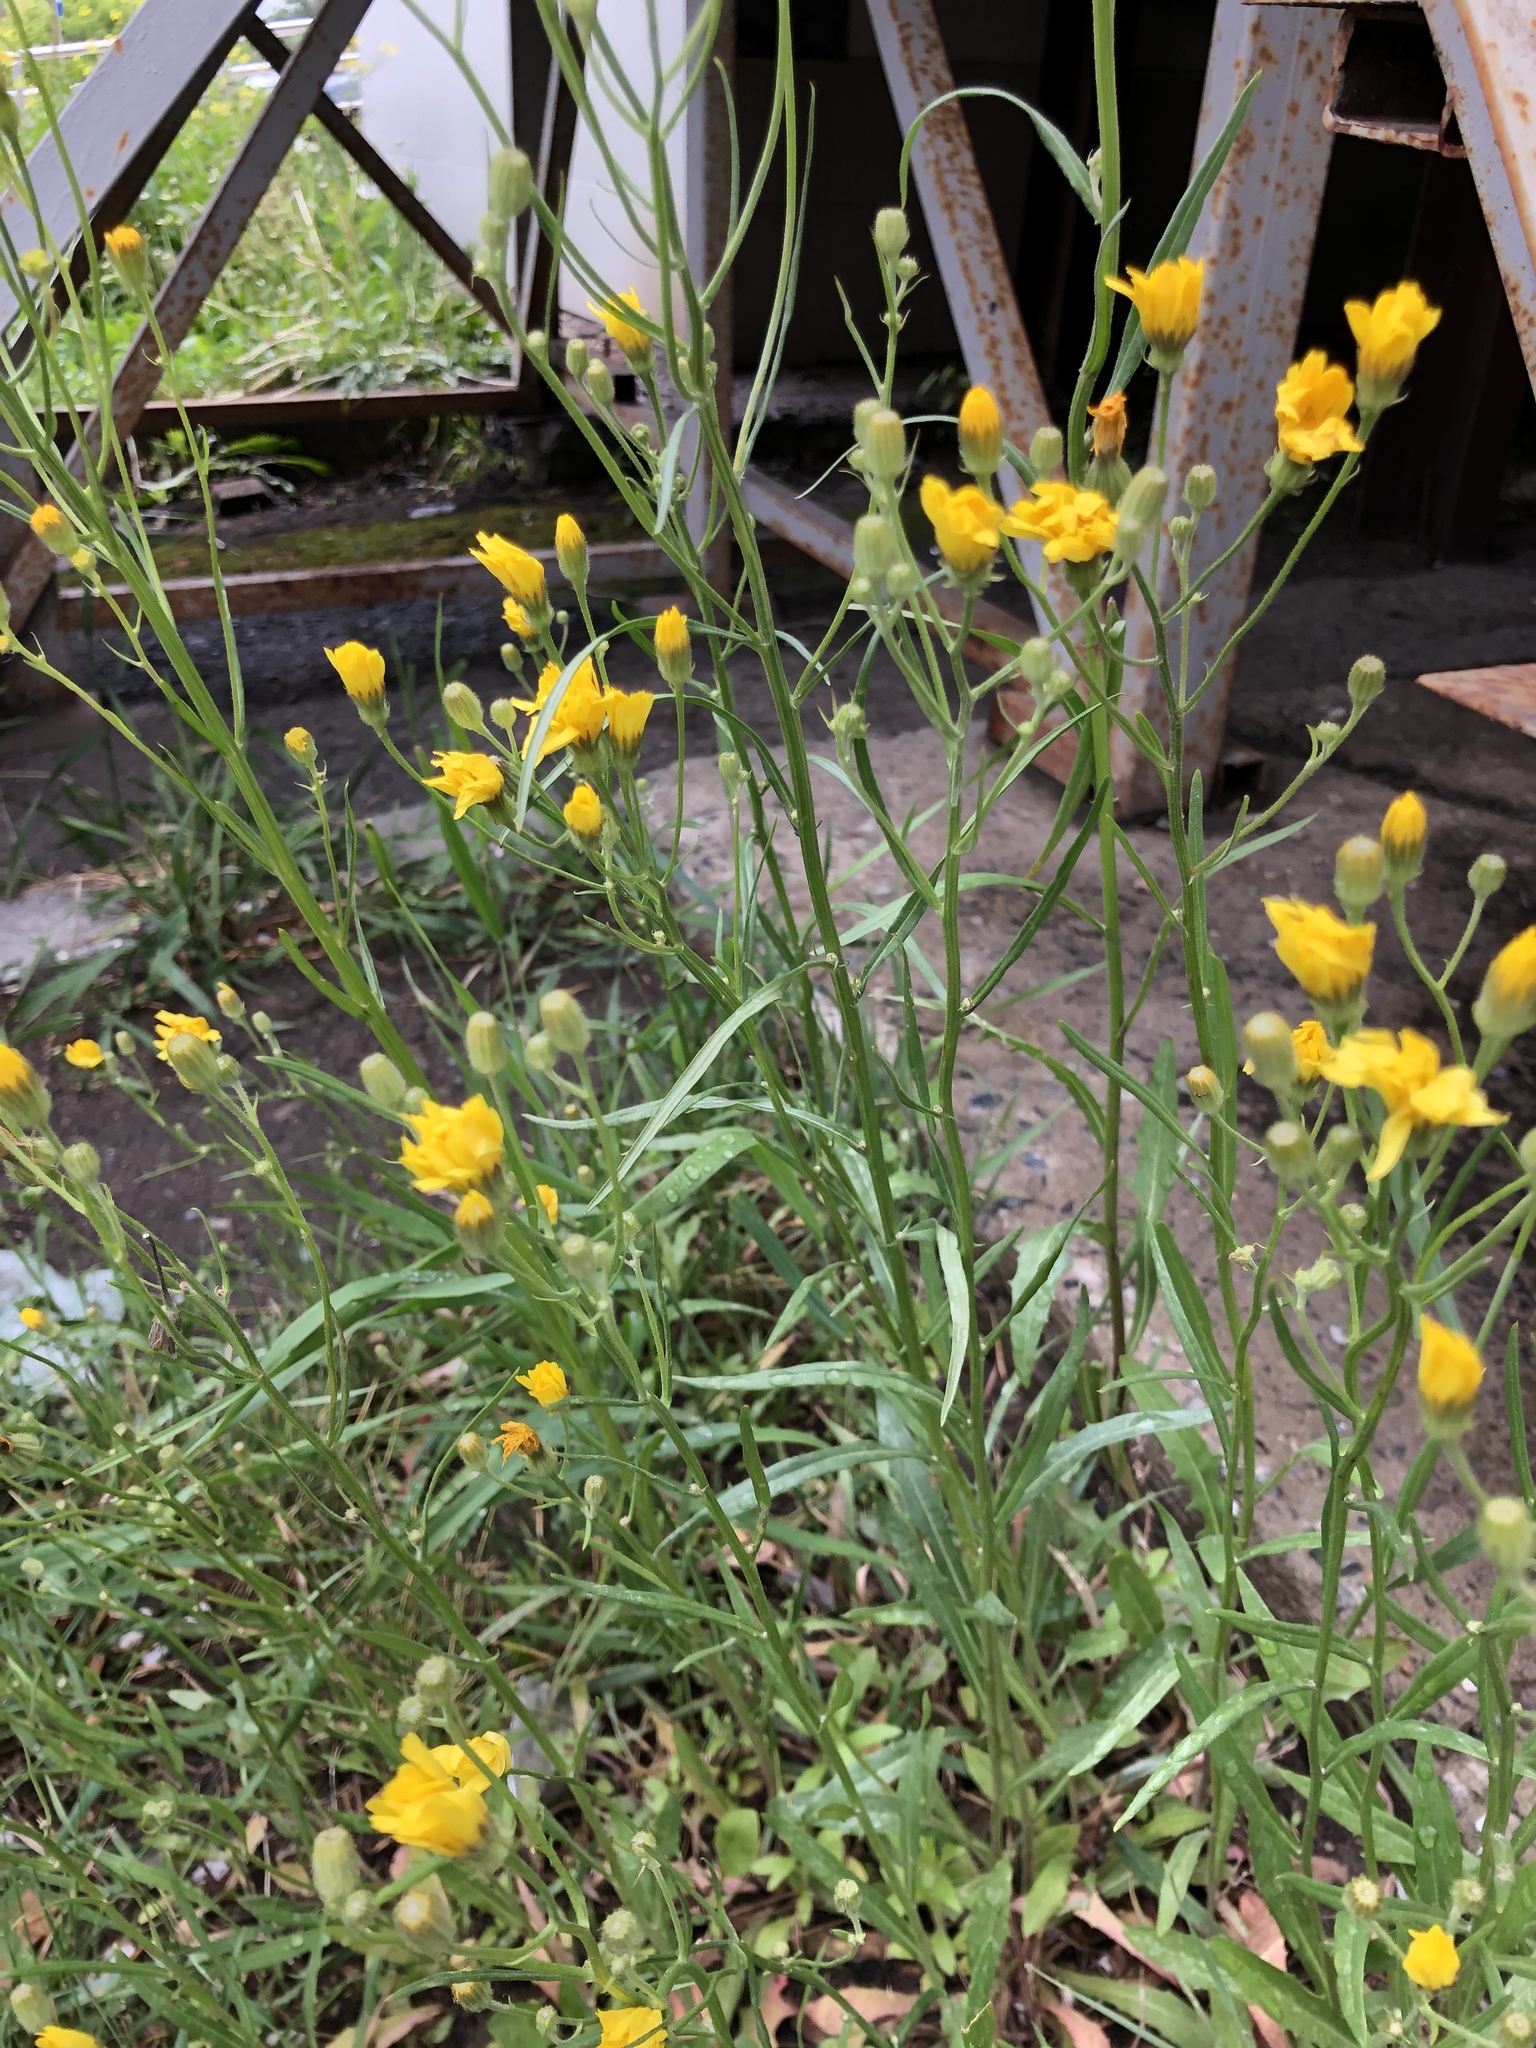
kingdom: Plantae
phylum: Tracheophyta
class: Magnoliopsida
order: Asterales
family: Asteraceae
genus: Crepis
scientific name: Crepis tectorum
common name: Narrow-leaved hawk's-beard
